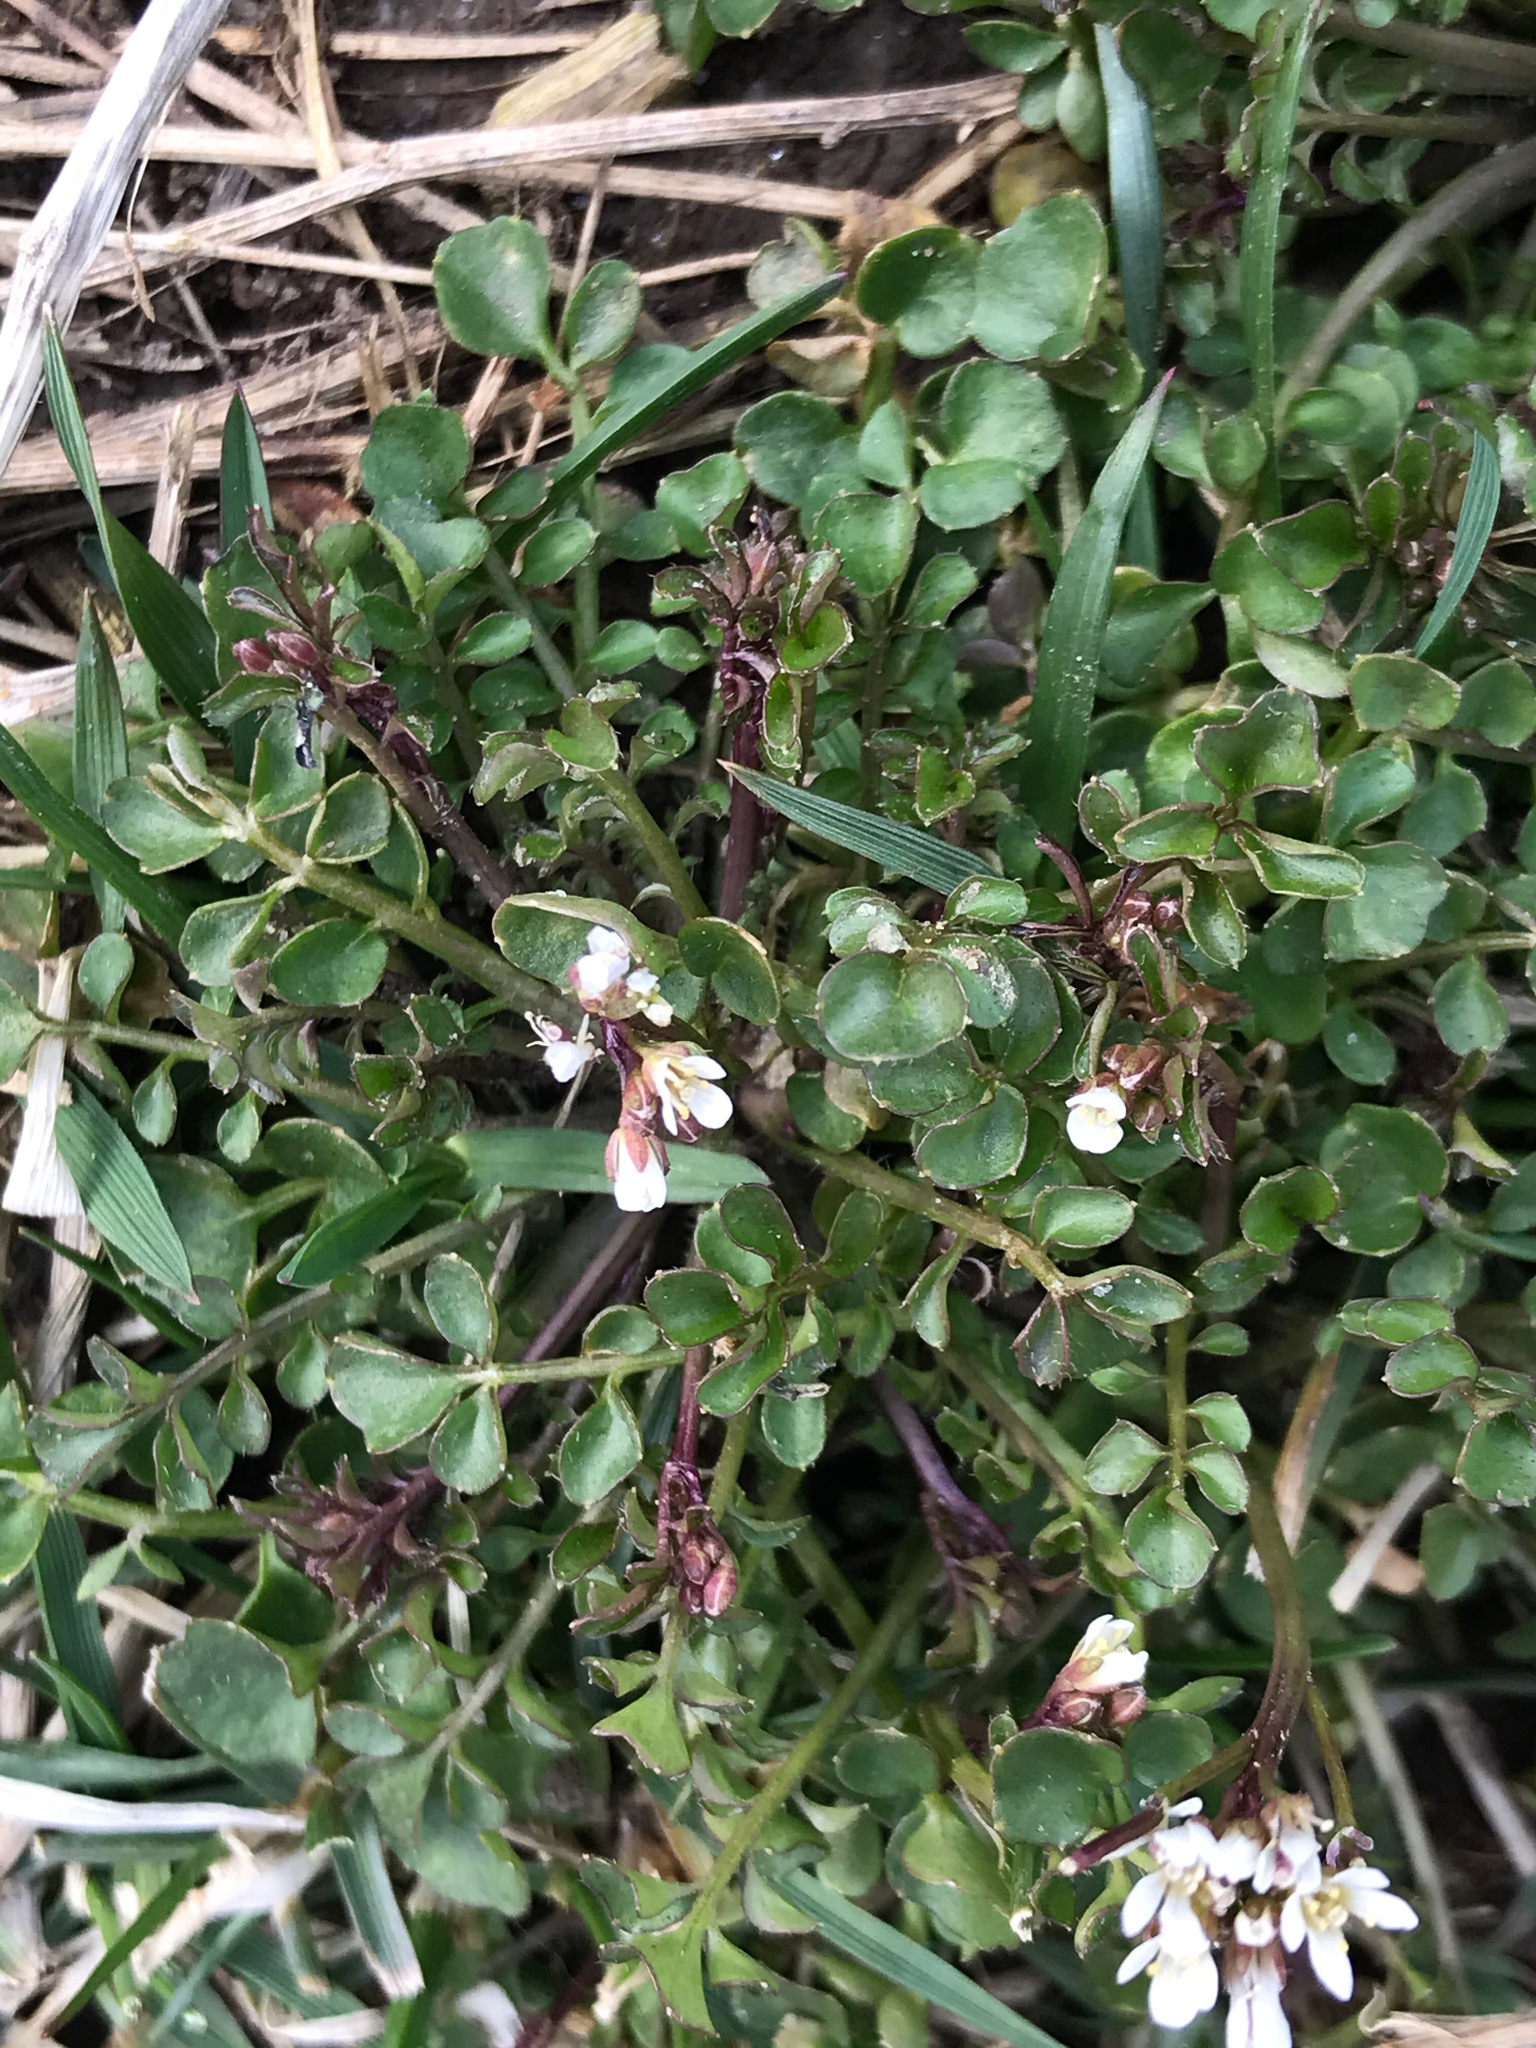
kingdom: Plantae
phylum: Tracheophyta
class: Magnoliopsida
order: Brassicales
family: Brassicaceae
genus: Cardamine
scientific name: Cardamine hirsuta
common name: Hairy bittercress
